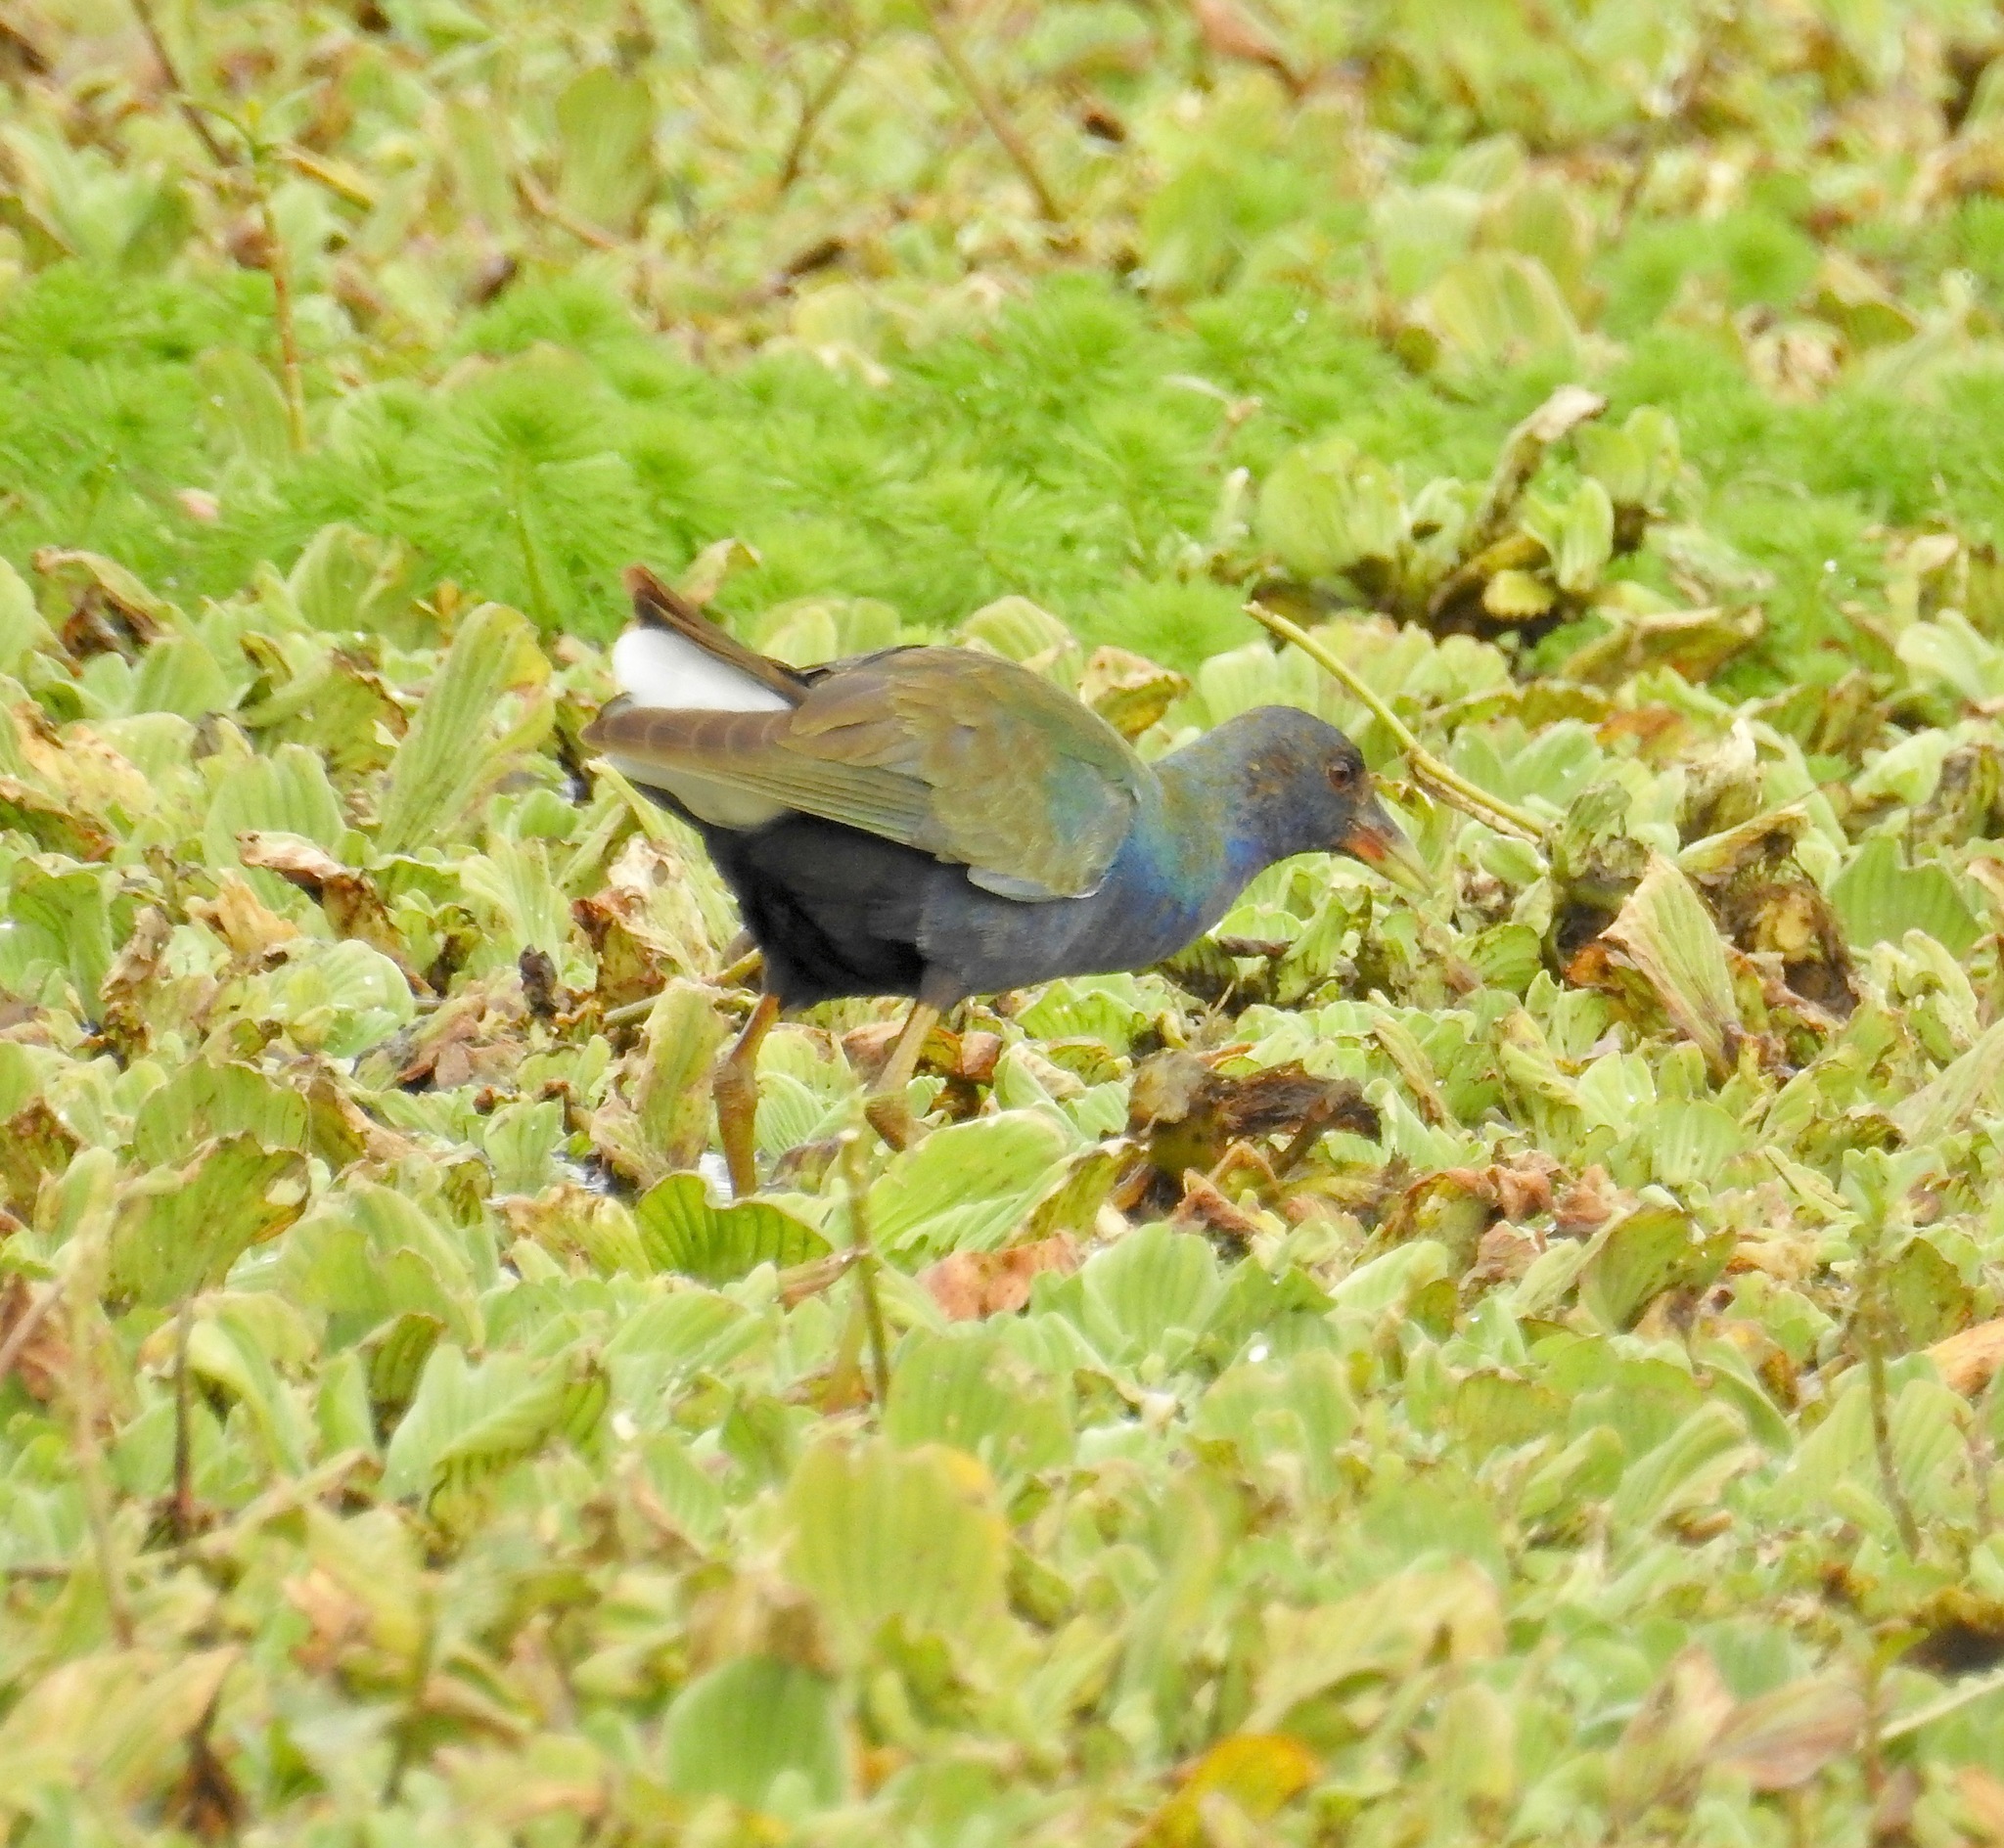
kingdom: Animalia
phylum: Chordata
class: Aves
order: Gruiformes
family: Rallidae
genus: Porphyrio
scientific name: Porphyrio martinica
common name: Purple gallinule
